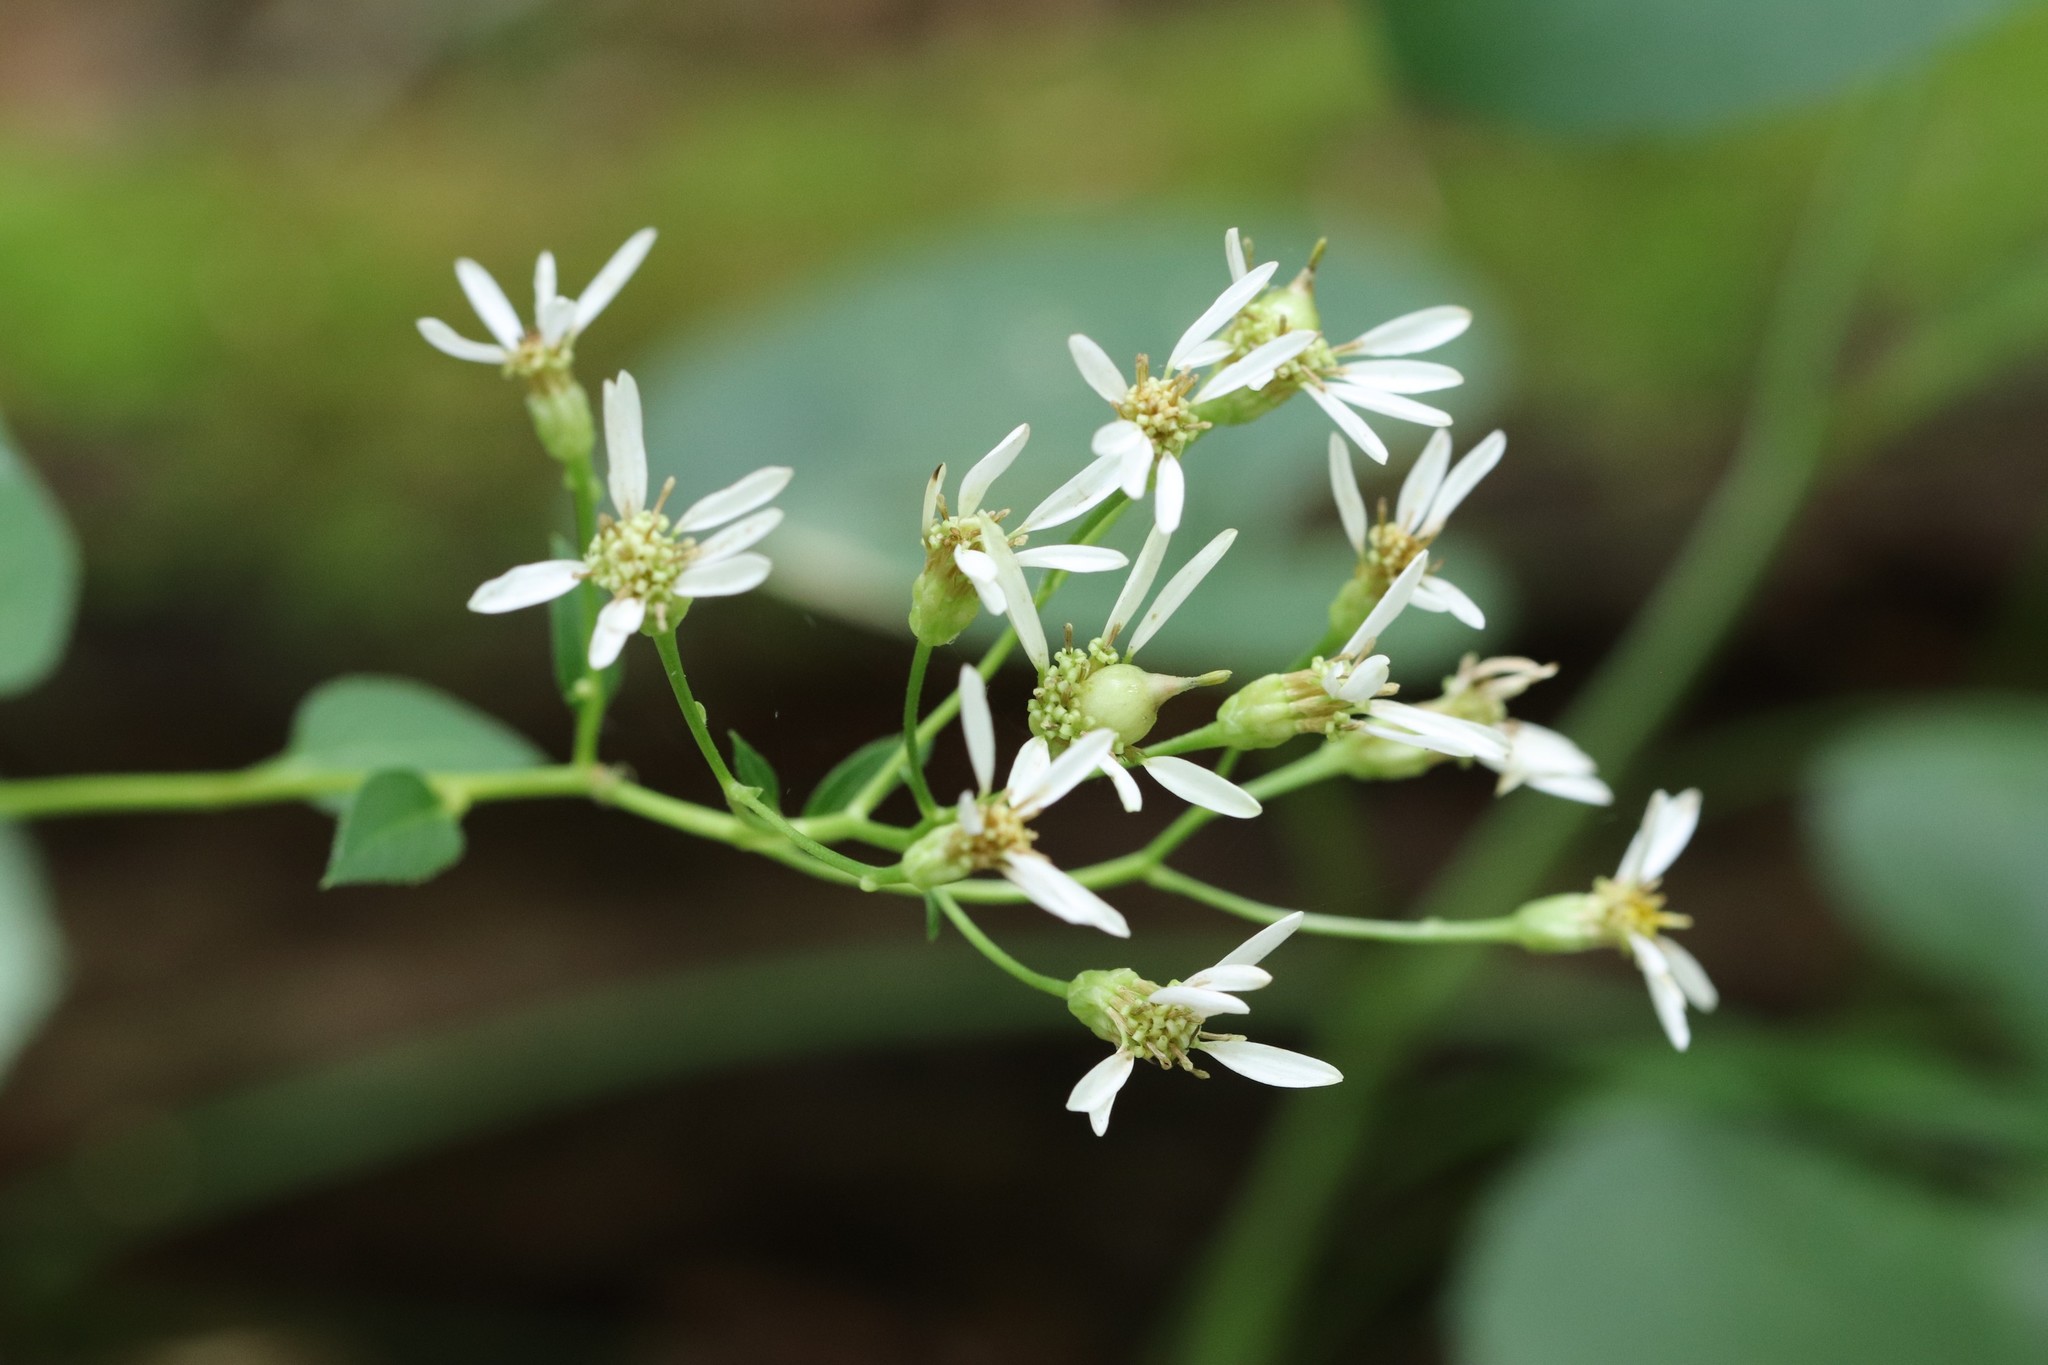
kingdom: Plantae
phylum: Tracheophyta
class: Magnoliopsida
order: Asterales
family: Asteraceae
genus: Aster
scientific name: Aster scaber
